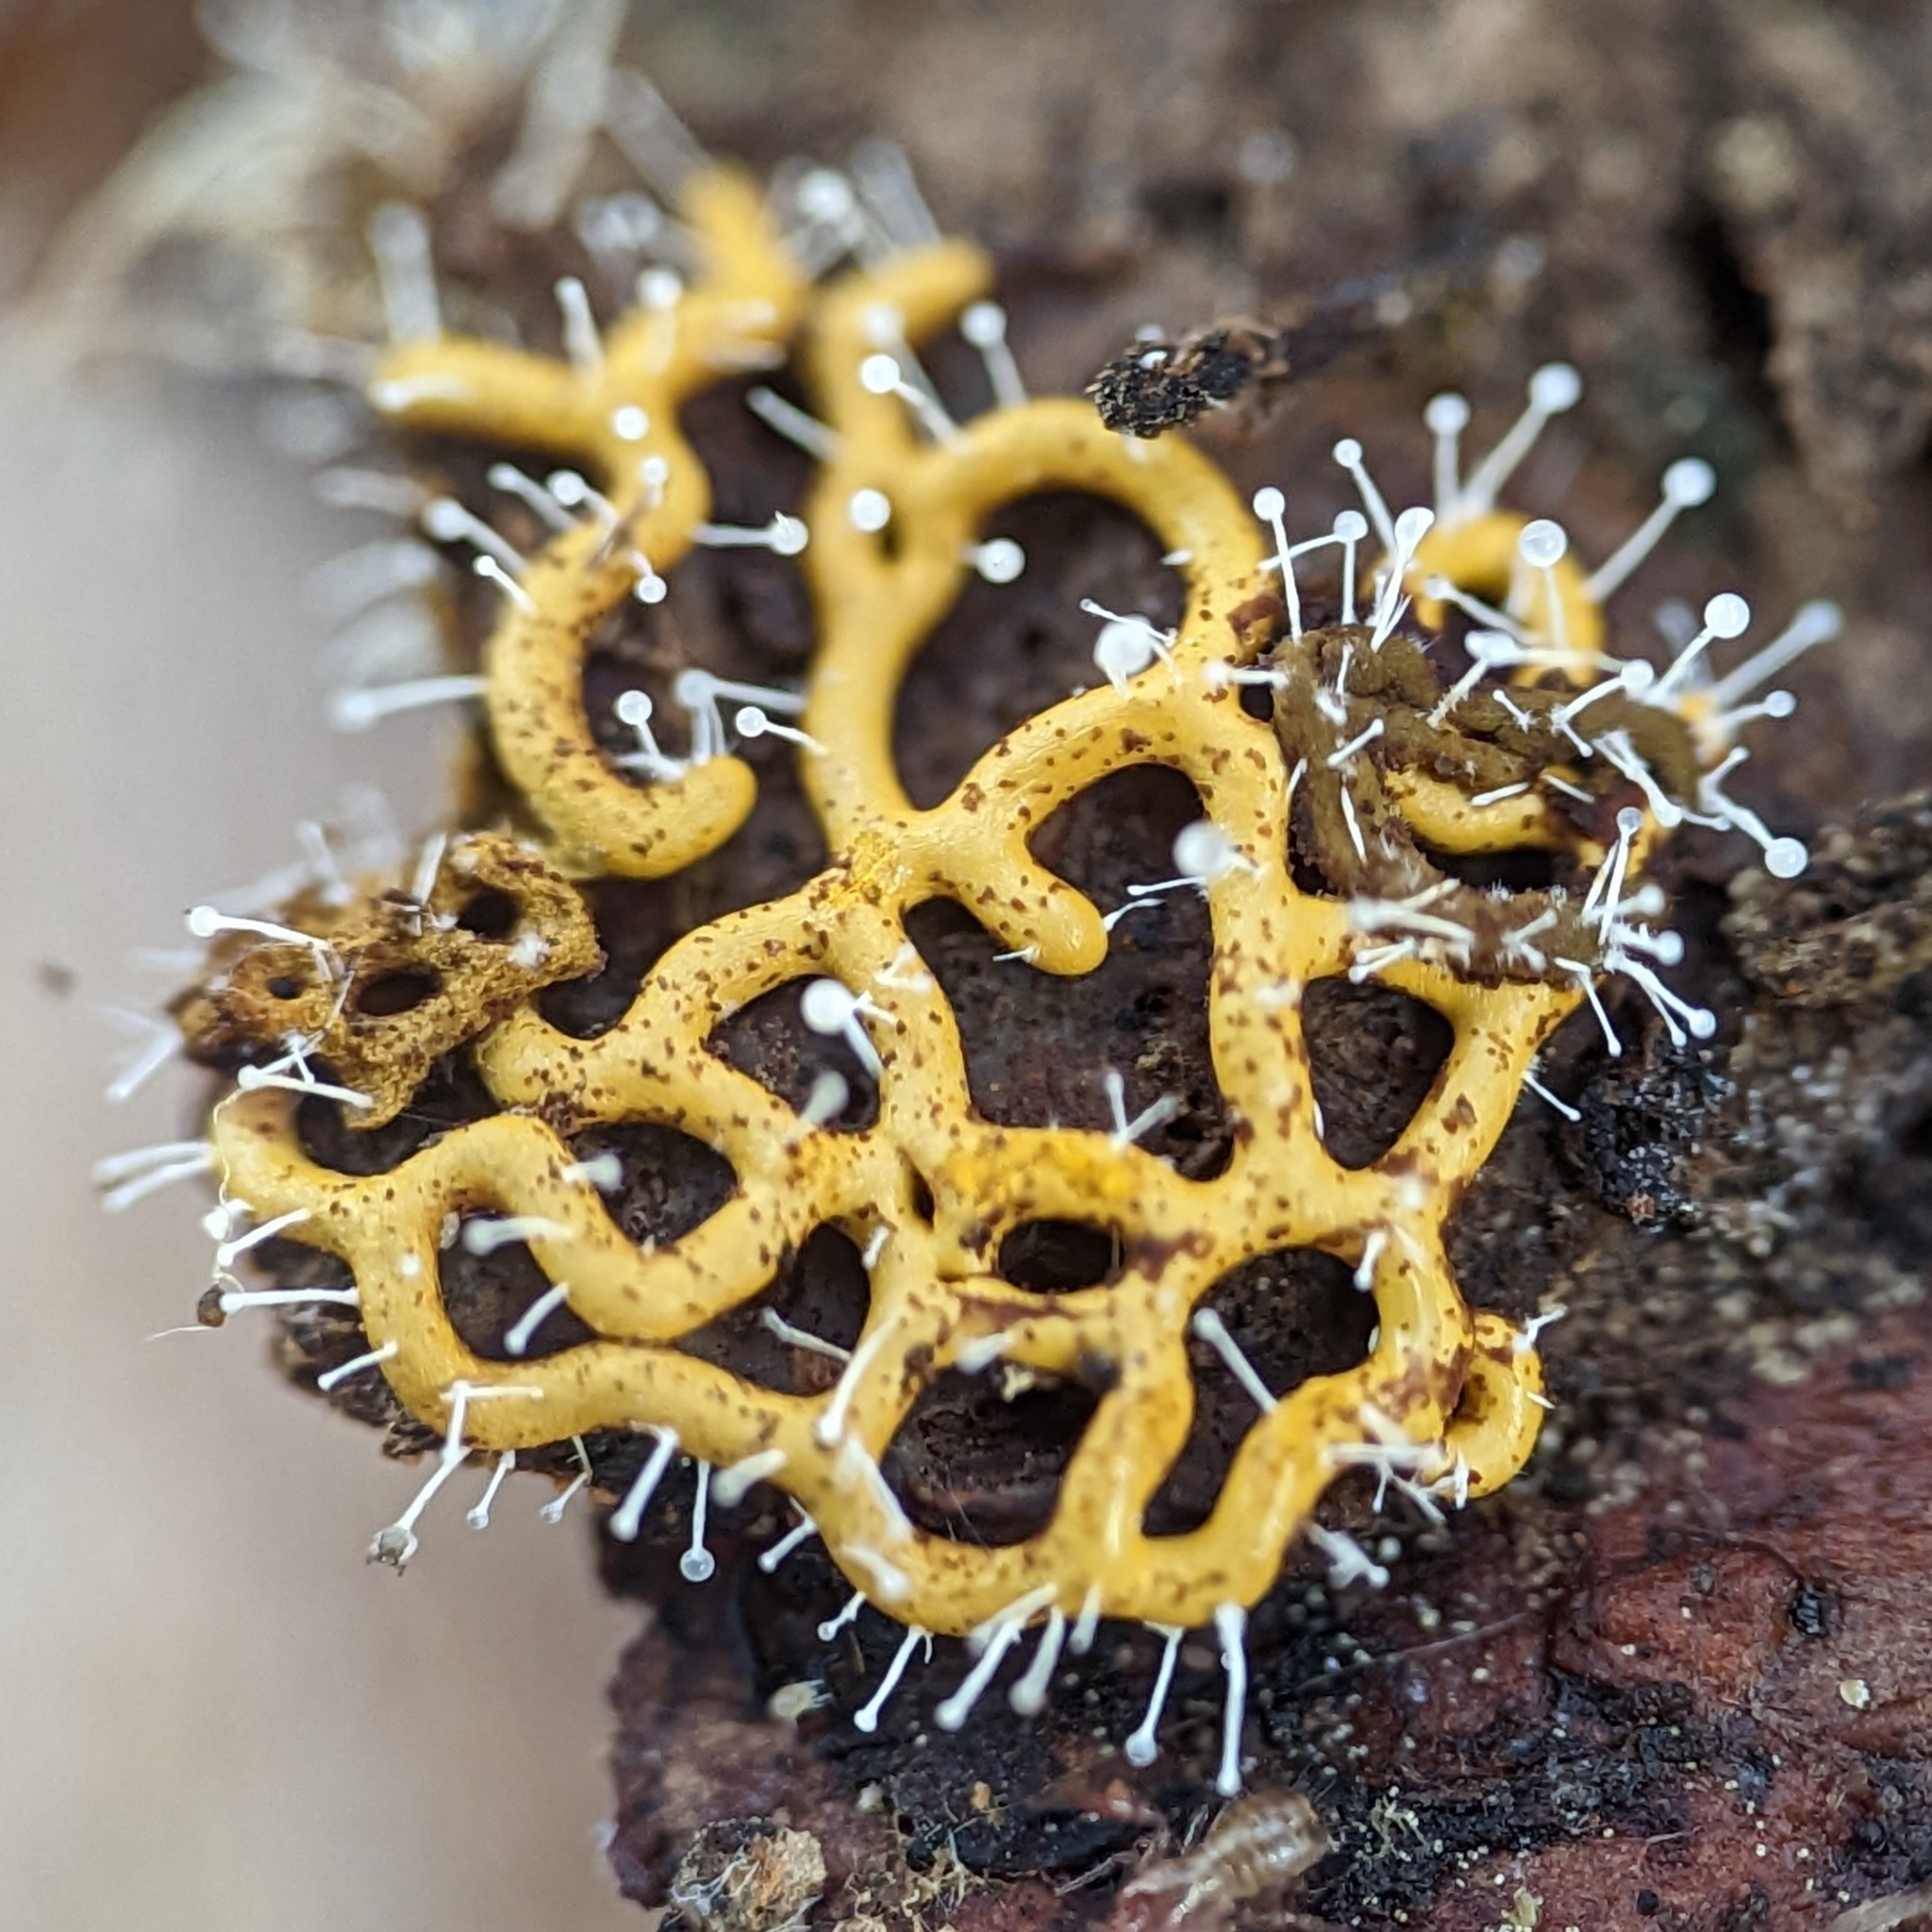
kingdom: Fungi
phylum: Ascomycota
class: Sordariomycetes
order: Hypocreales
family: Ophiocordycipitaceae
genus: Polycephalomyces
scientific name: Polycephalomyces tomentosus
